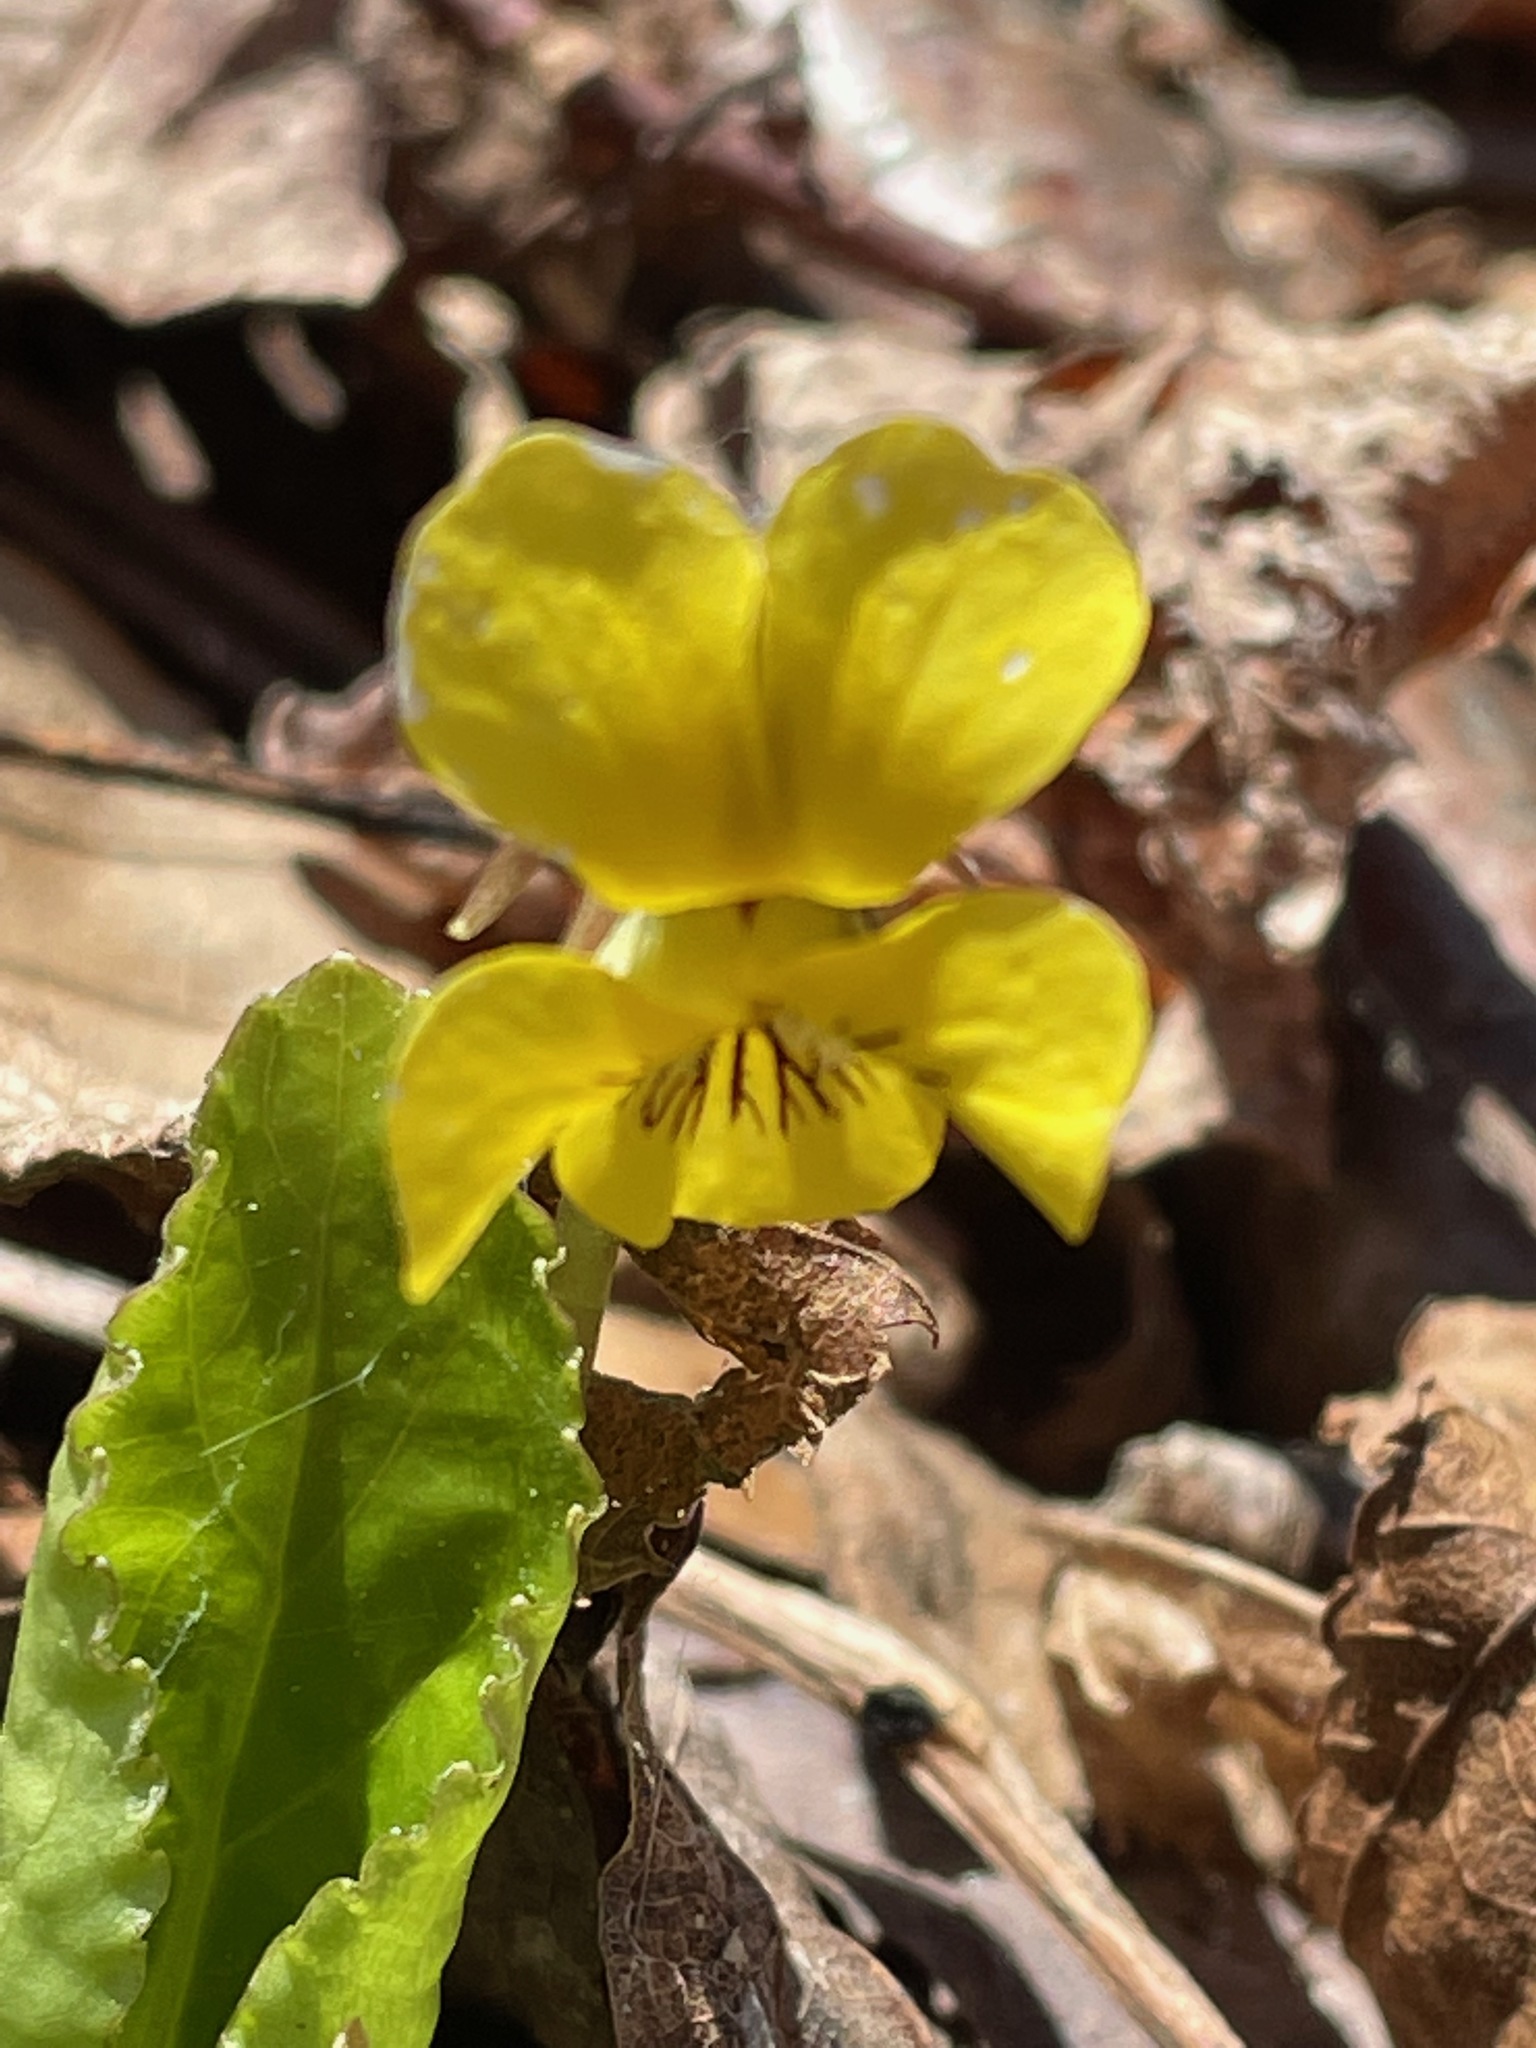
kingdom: Plantae
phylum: Tracheophyta
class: Magnoliopsida
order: Malpighiales
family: Violaceae
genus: Viola
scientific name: Viola rotundifolia
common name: Early yellow violet
